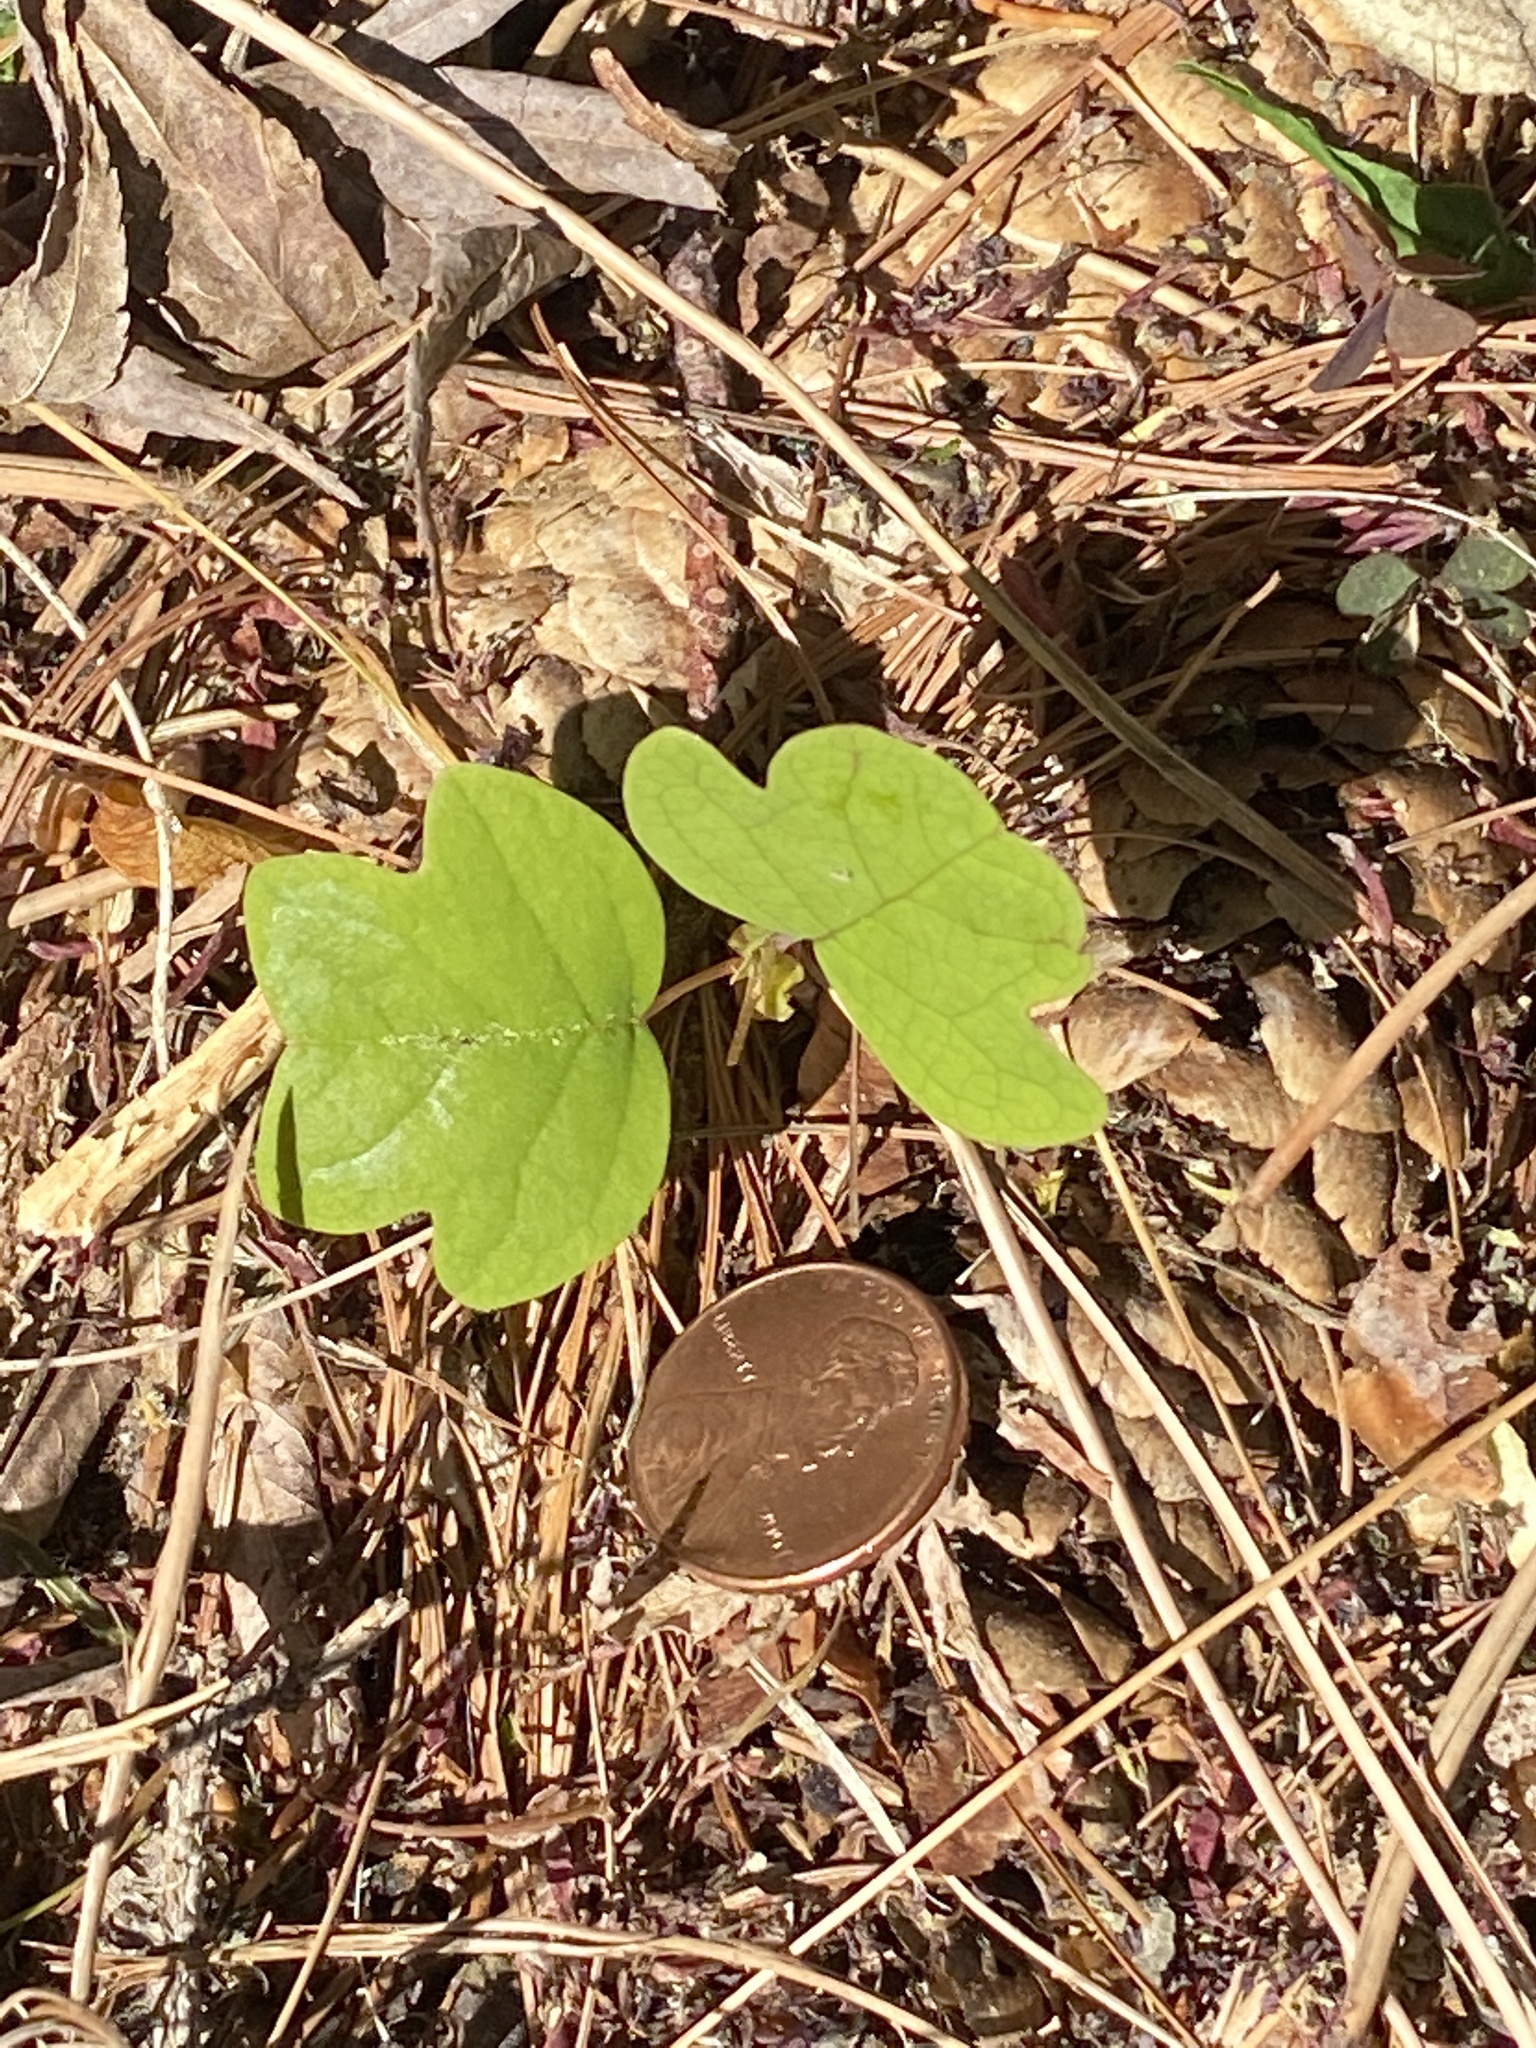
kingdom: Plantae
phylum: Tracheophyta
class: Magnoliopsida
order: Magnoliales
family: Magnoliaceae
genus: Liriodendron
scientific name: Liriodendron tulipifera
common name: Tulip tree
